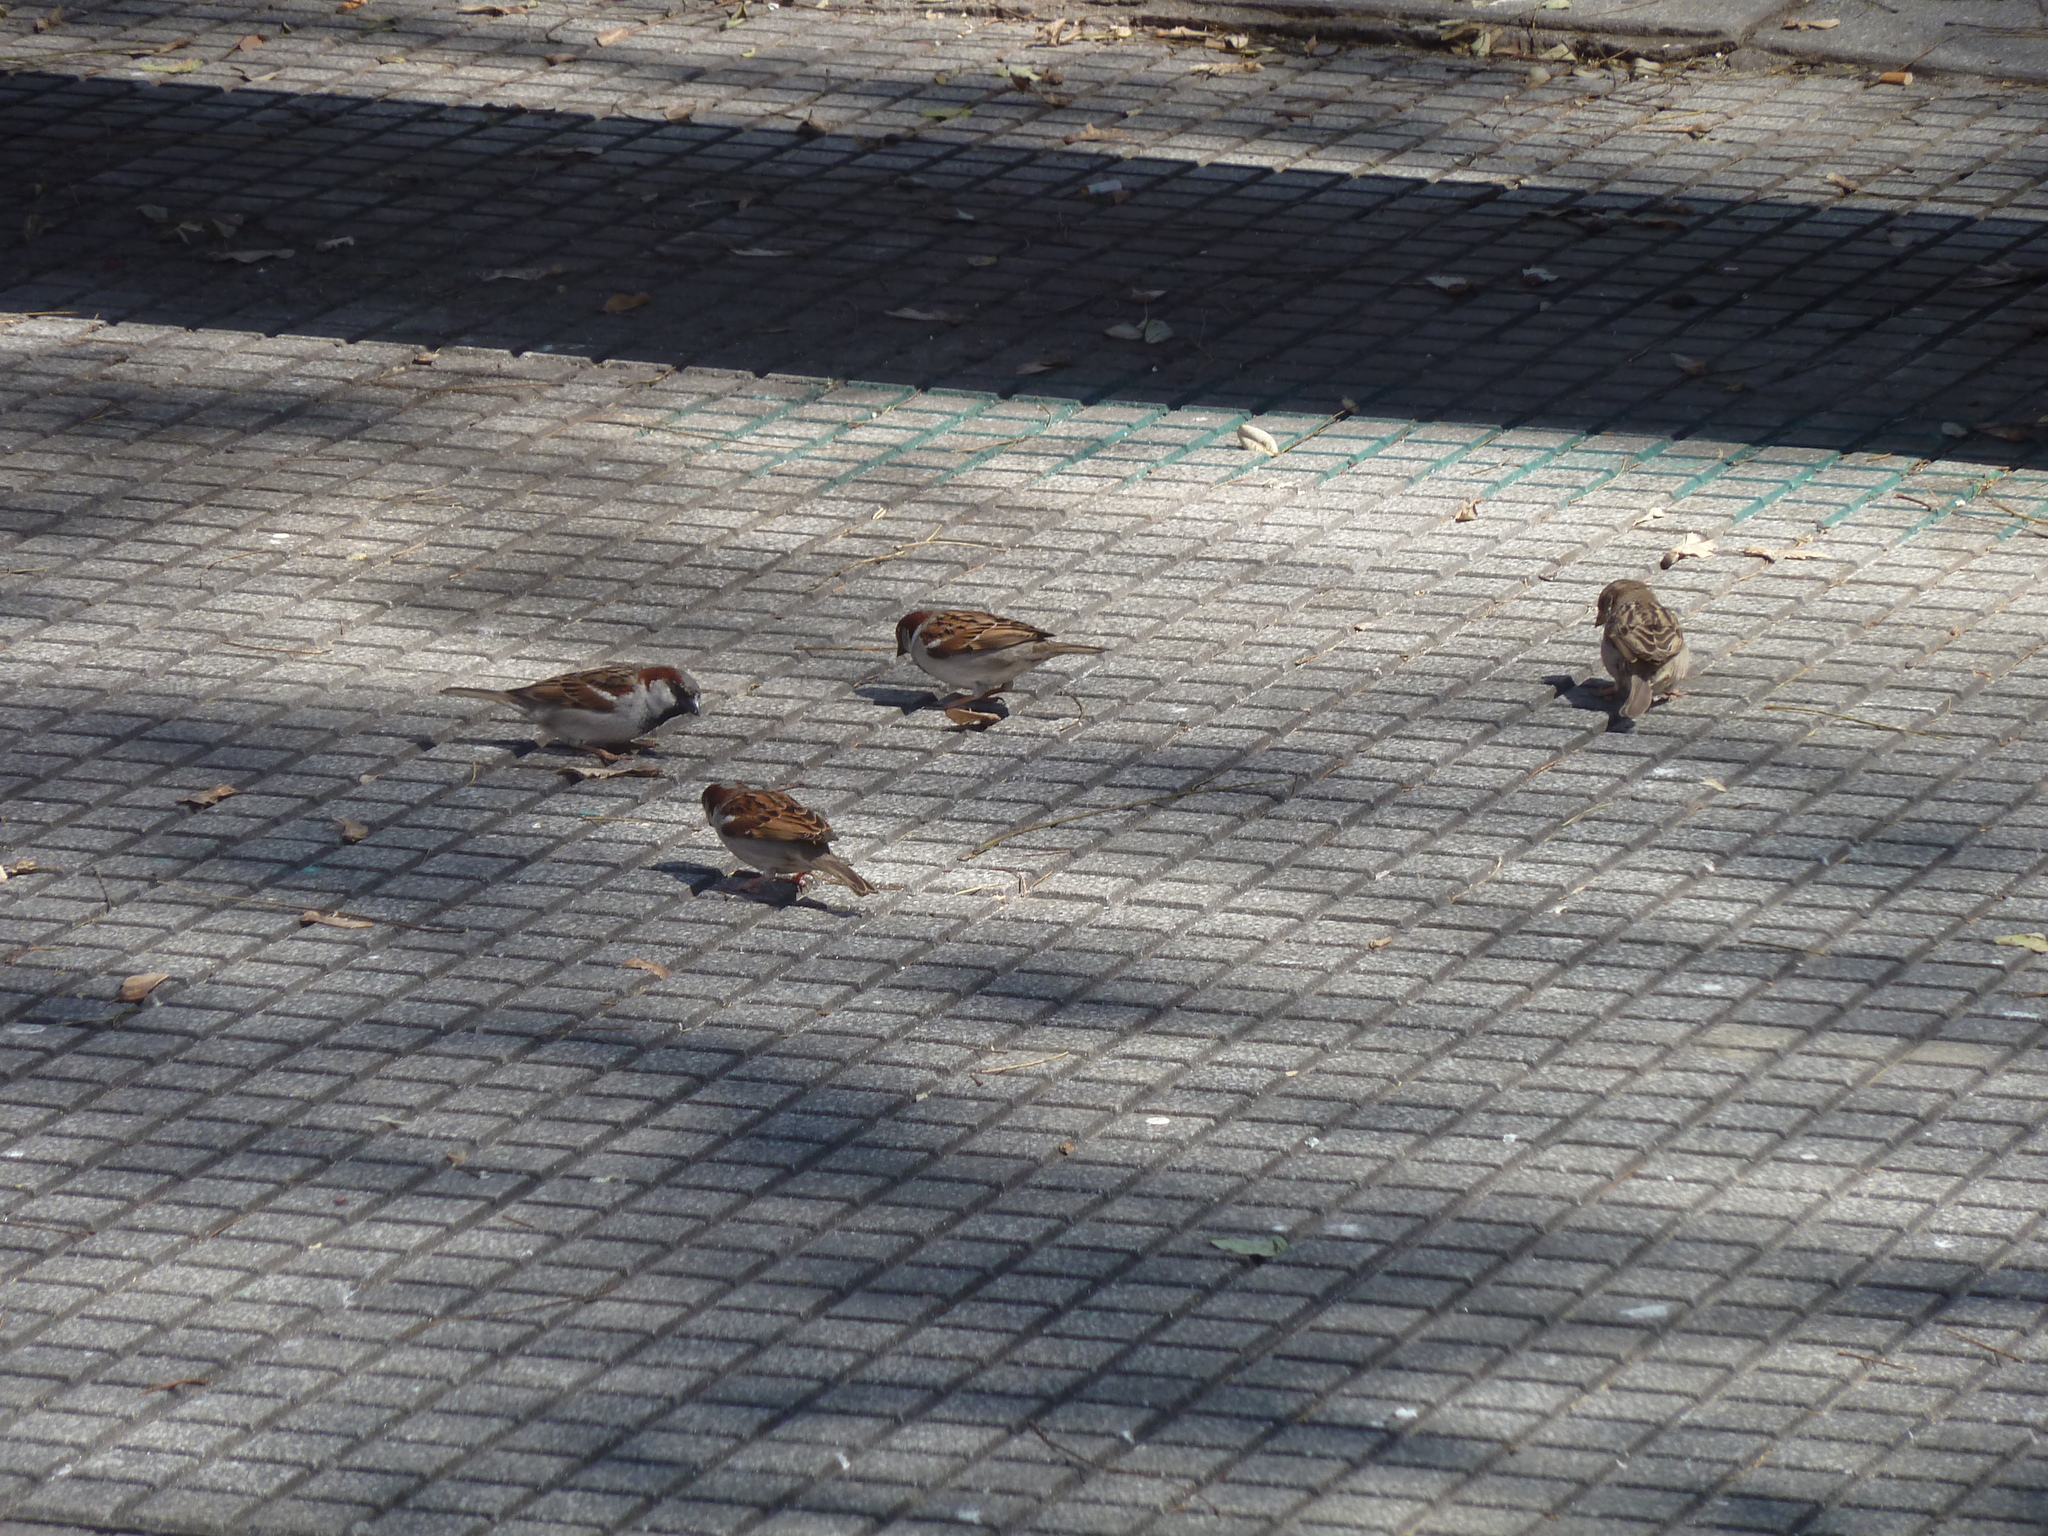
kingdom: Animalia
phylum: Chordata
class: Aves
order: Passeriformes
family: Passeridae
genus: Passer
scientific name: Passer domesticus
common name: House sparrow
